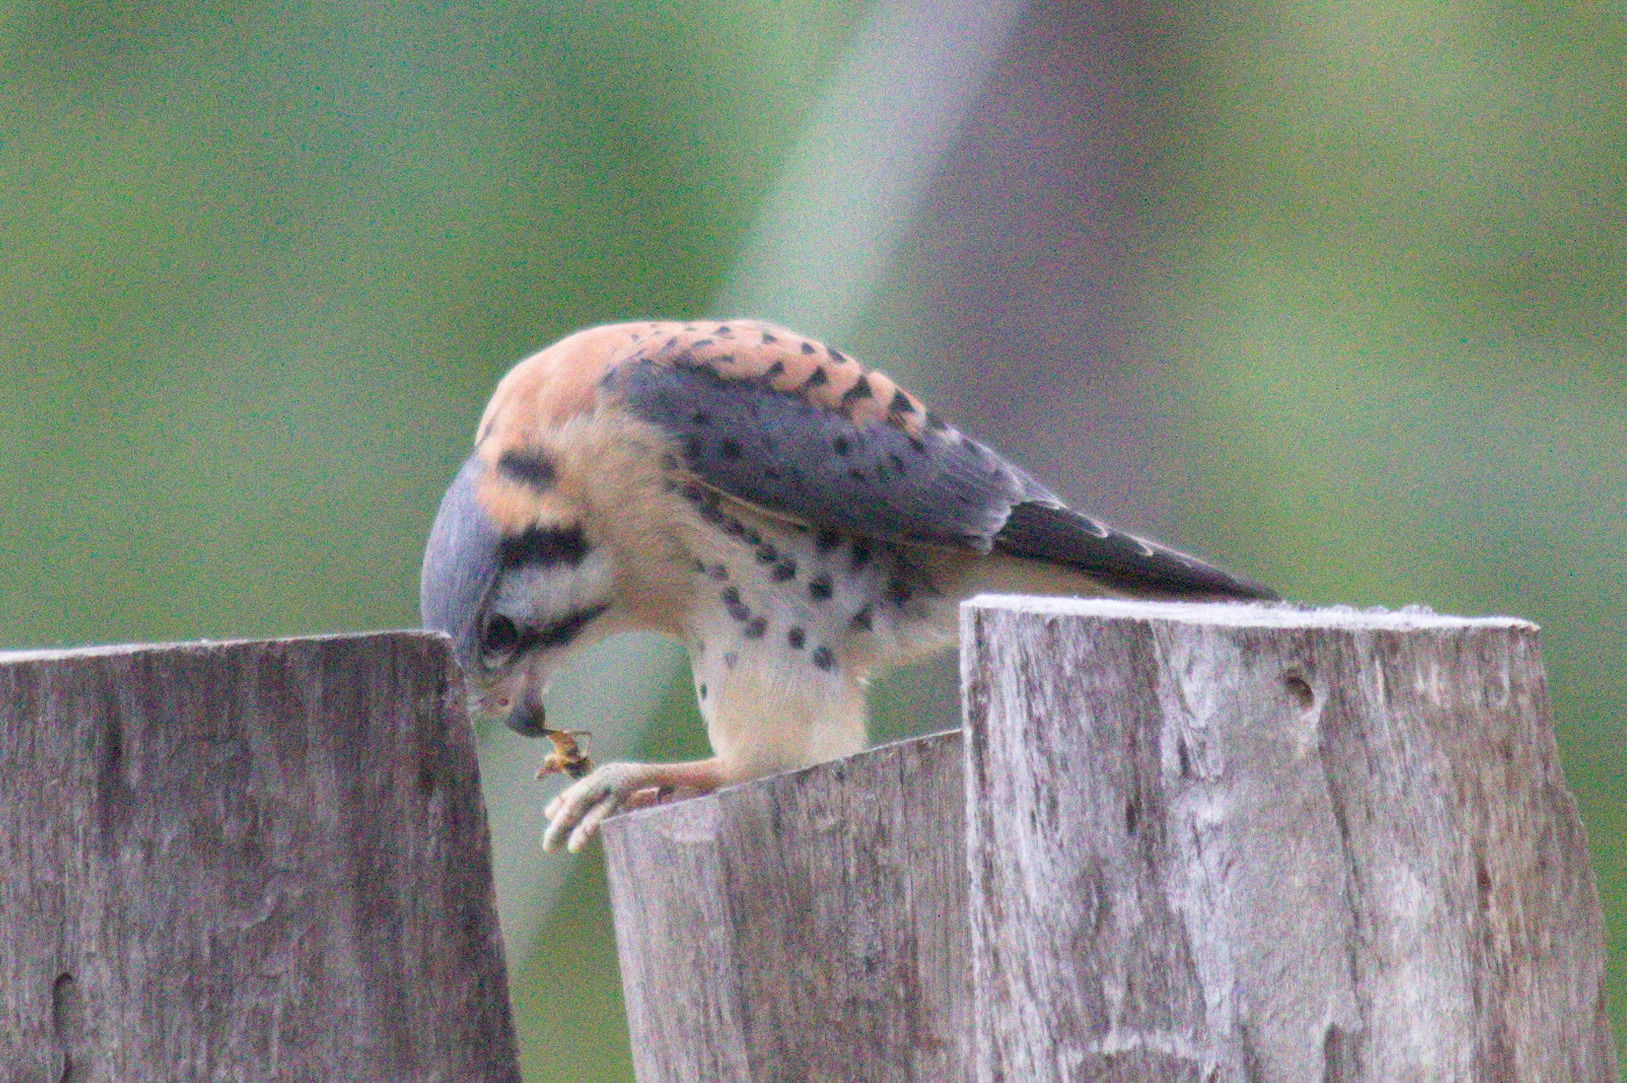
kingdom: Animalia
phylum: Chordata
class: Aves
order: Falconiformes
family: Falconidae
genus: Falco
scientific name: Falco sparverius
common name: American kestrel
